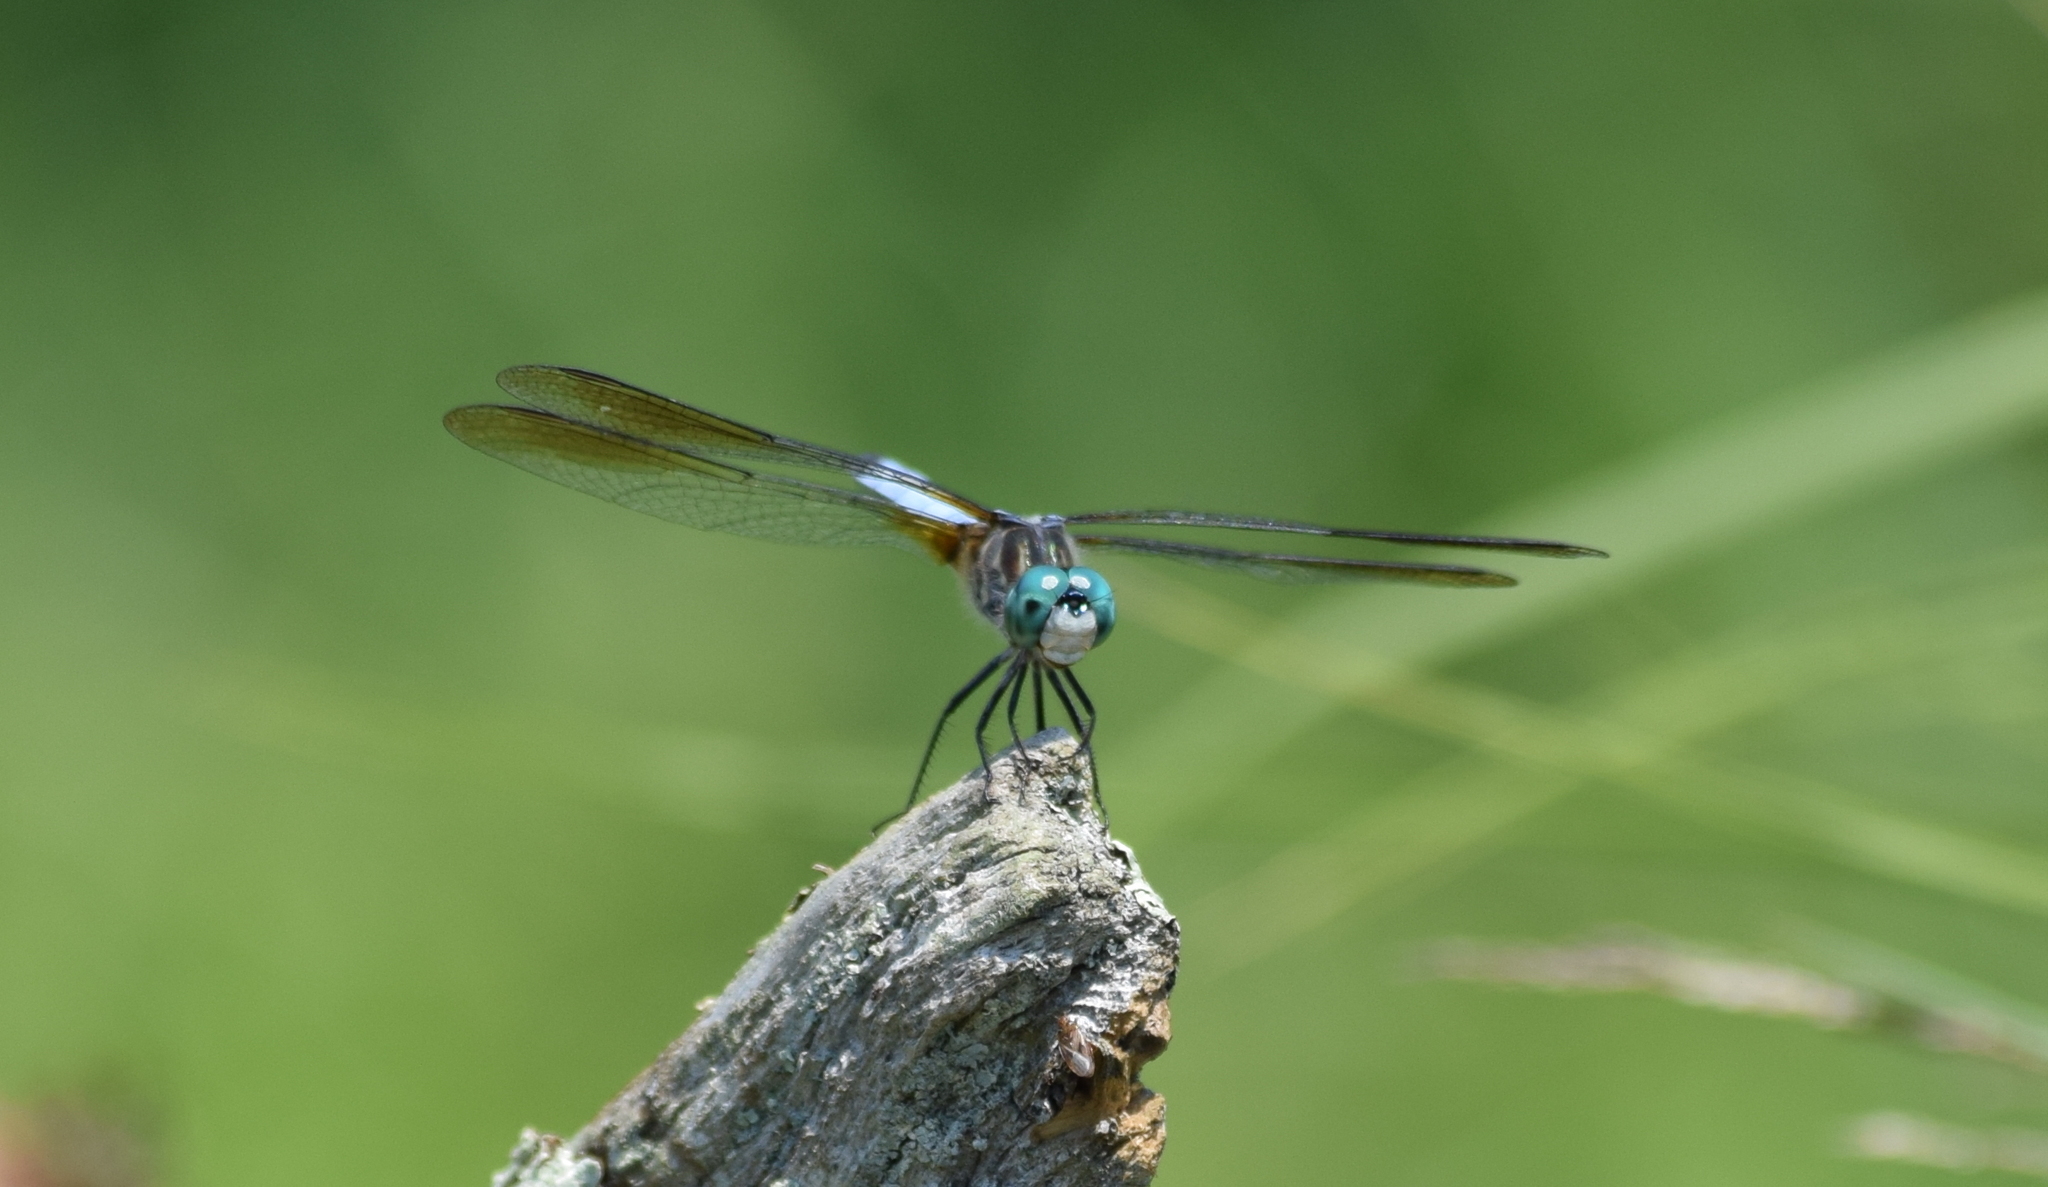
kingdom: Animalia
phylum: Arthropoda
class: Insecta
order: Odonata
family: Libellulidae
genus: Pachydiplax
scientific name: Pachydiplax longipennis
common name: Blue dasher
